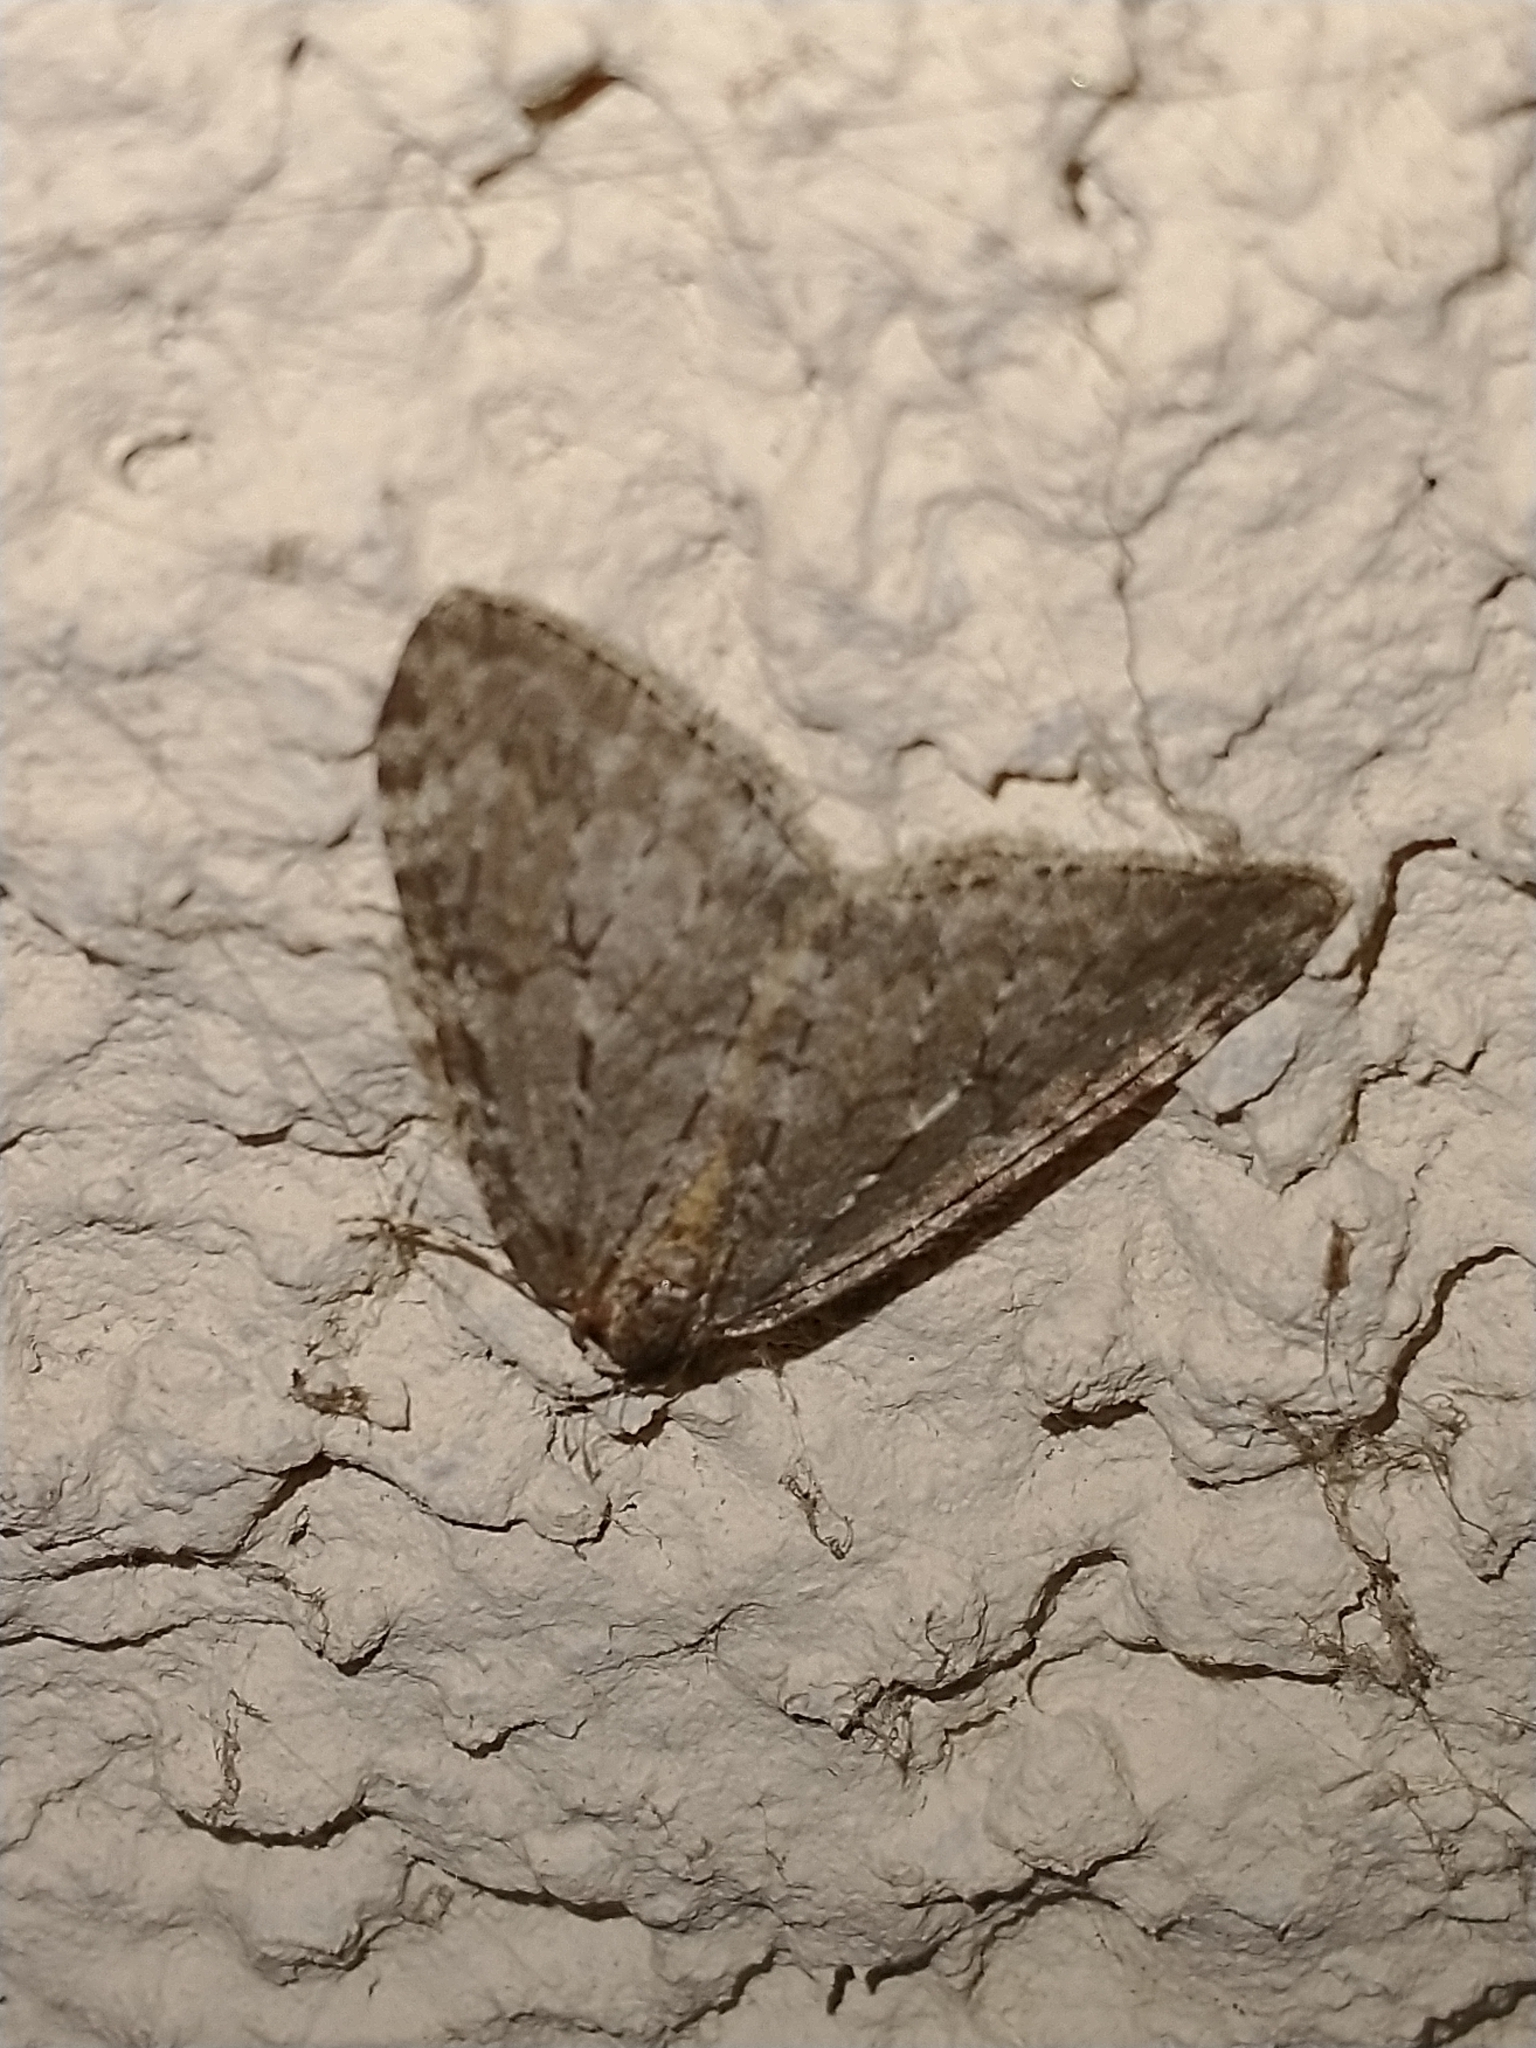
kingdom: Animalia
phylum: Arthropoda
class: Insecta
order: Lepidoptera
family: Geometridae
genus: Epirrita
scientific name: Epirrita
